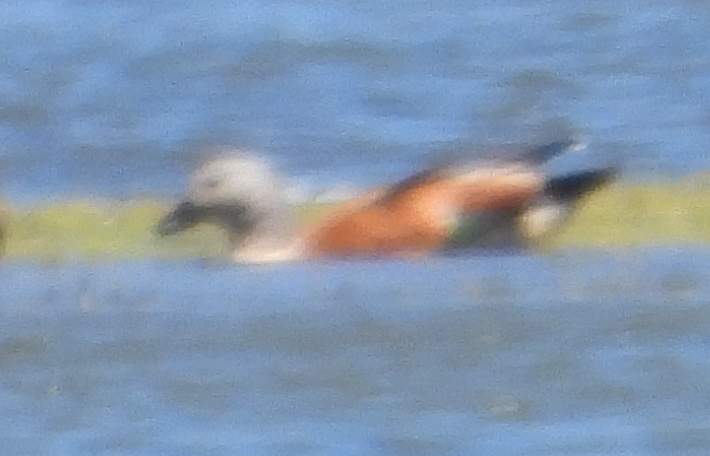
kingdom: Animalia
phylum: Chordata
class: Aves
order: Anseriformes
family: Anatidae
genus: Tadorna
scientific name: Tadorna cana
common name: South african shelduck
